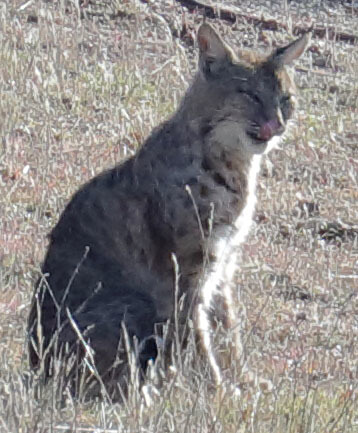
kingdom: Animalia
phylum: Chordata
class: Mammalia
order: Carnivora
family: Felidae
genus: Lynx
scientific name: Lynx rufus
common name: Bobcat
